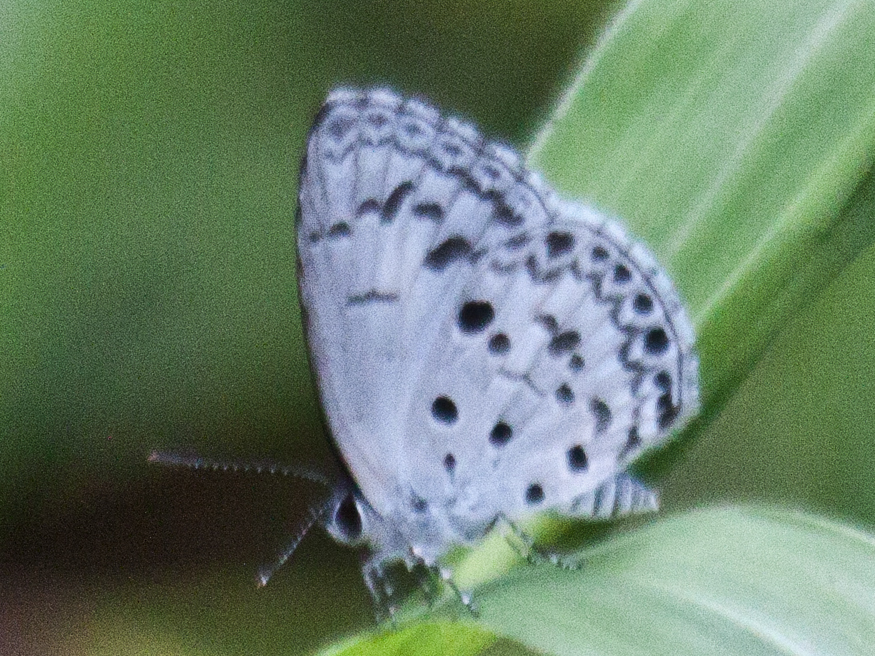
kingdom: Animalia
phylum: Arthropoda
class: Insecta
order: Lepidoptera
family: Lycaenidae
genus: Acytolepis
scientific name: Acytolepis puspa
